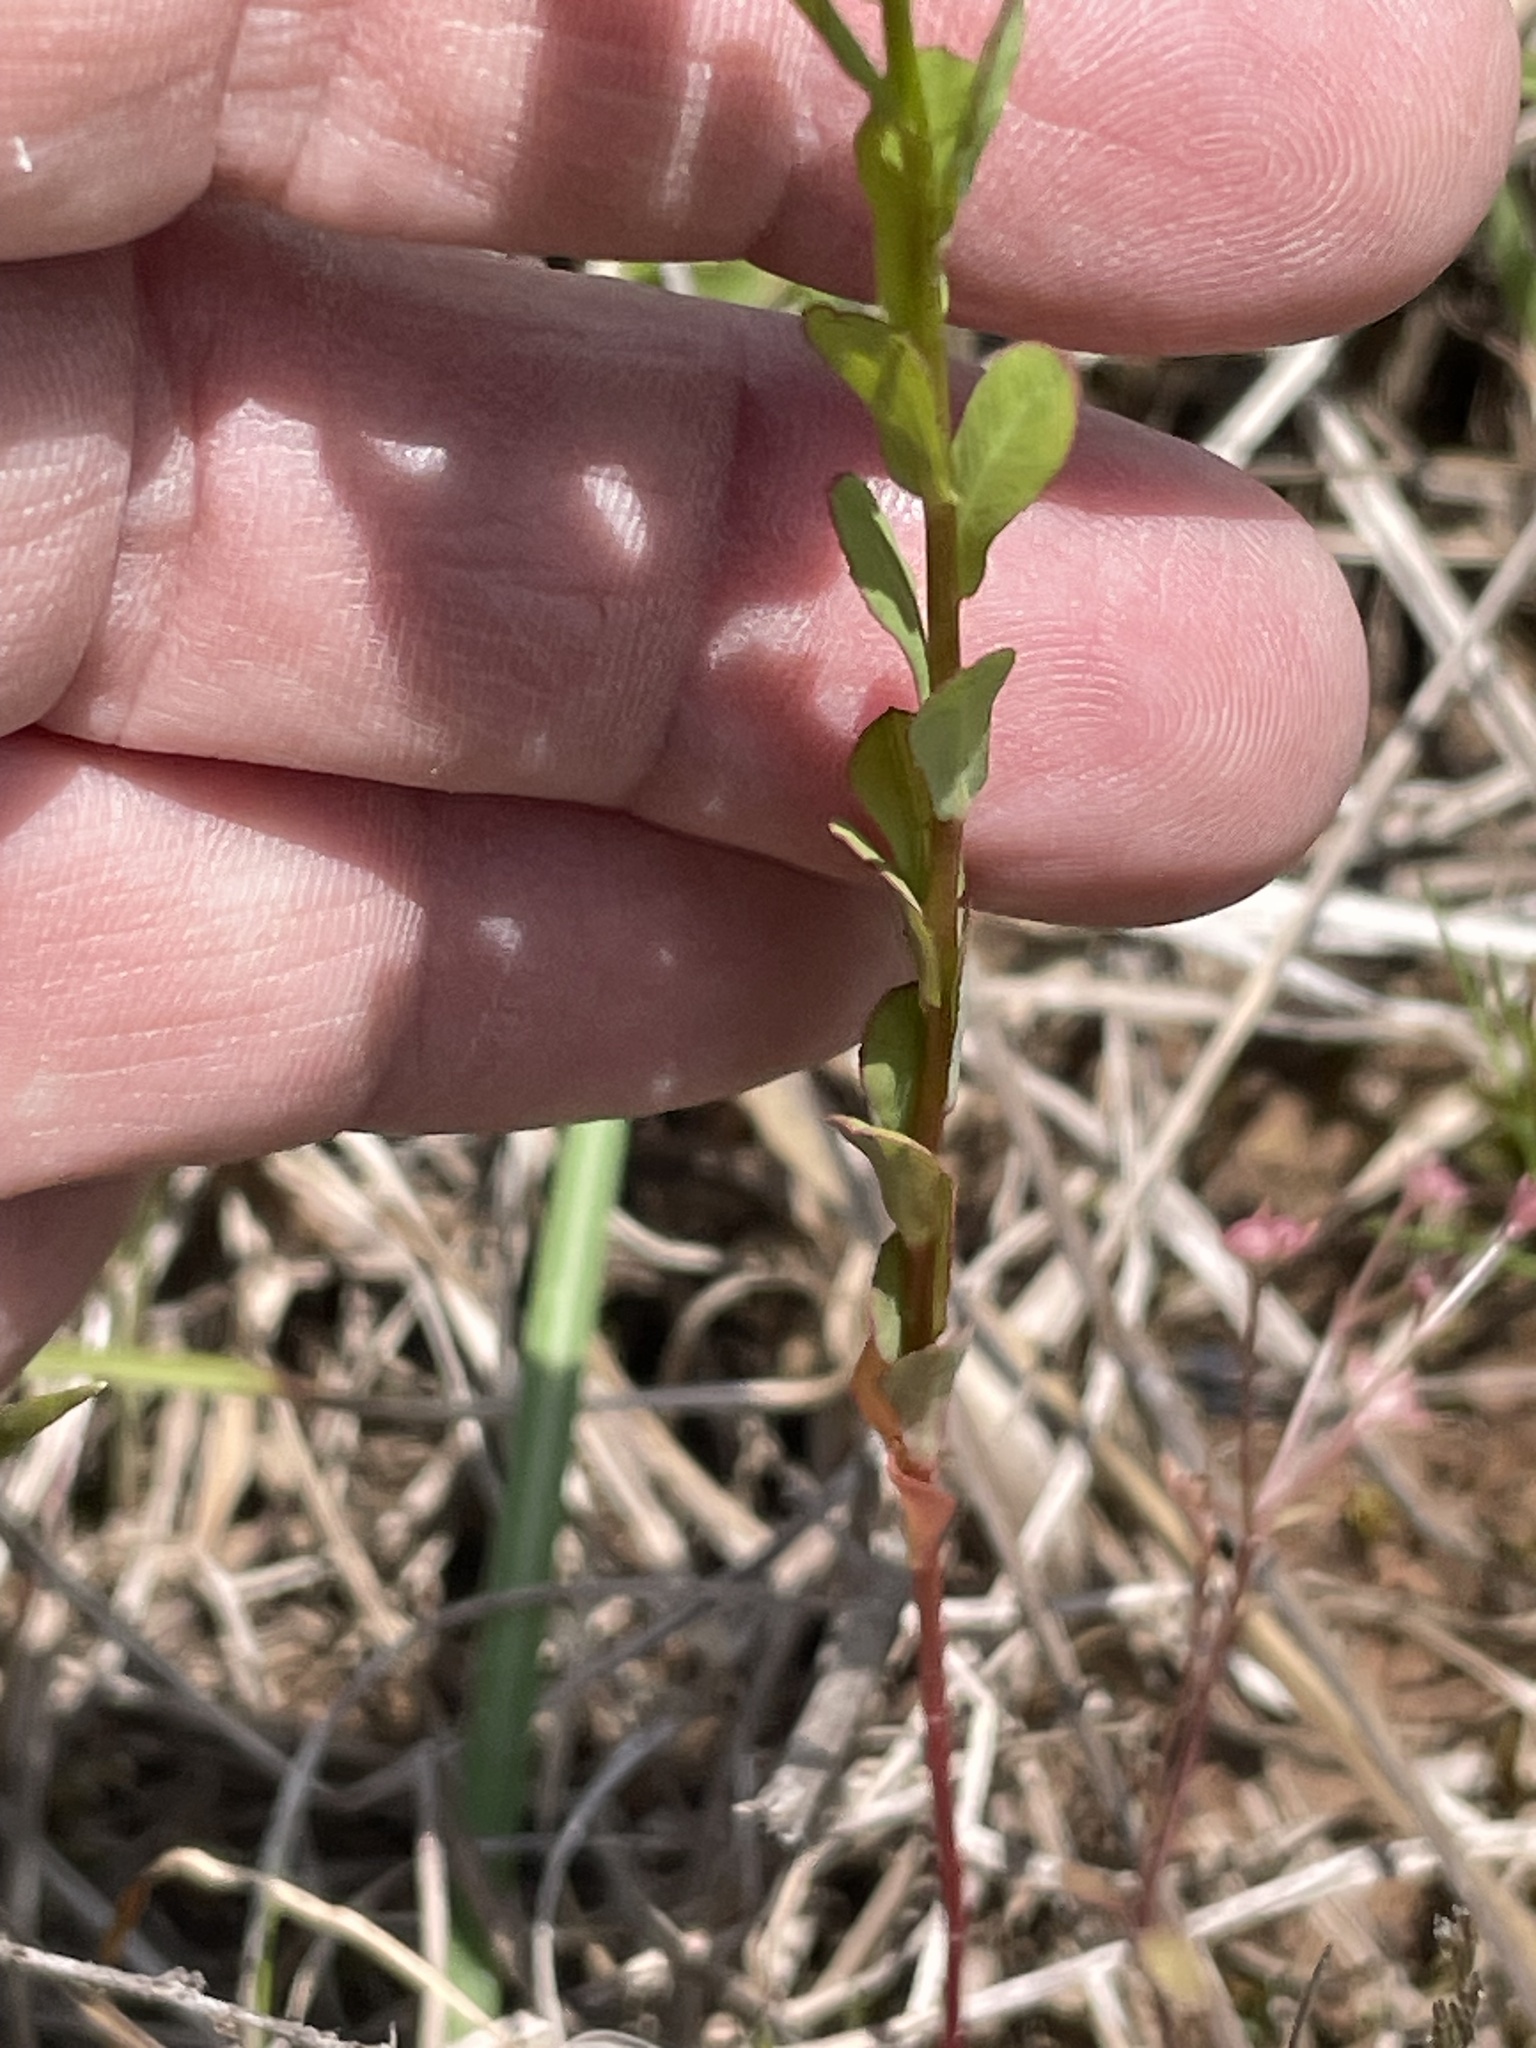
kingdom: Plantae
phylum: Tracheophyta
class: Magnoliopsida
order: Malpighiales
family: Euphorbiaceae
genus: Euphorbia
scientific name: Euphorbia spathulata
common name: Blunt spurge
